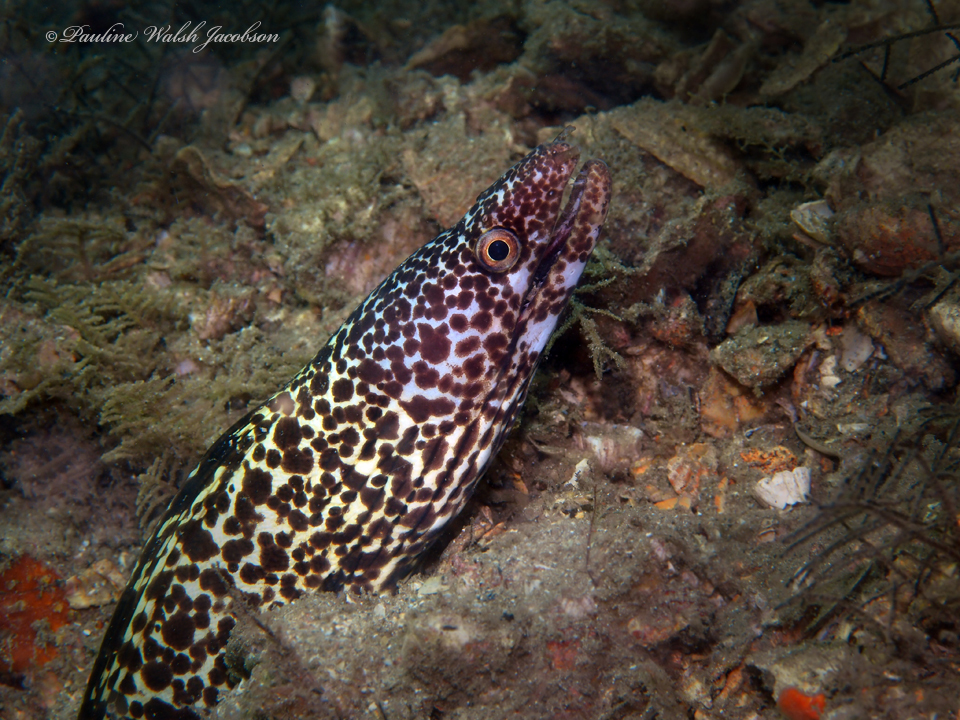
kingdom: Animalia
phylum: Chordata
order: Anguilliformes
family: Muraenidae
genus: Gymnothorax
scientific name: Gymnothorax moringa
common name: Spotted moray
